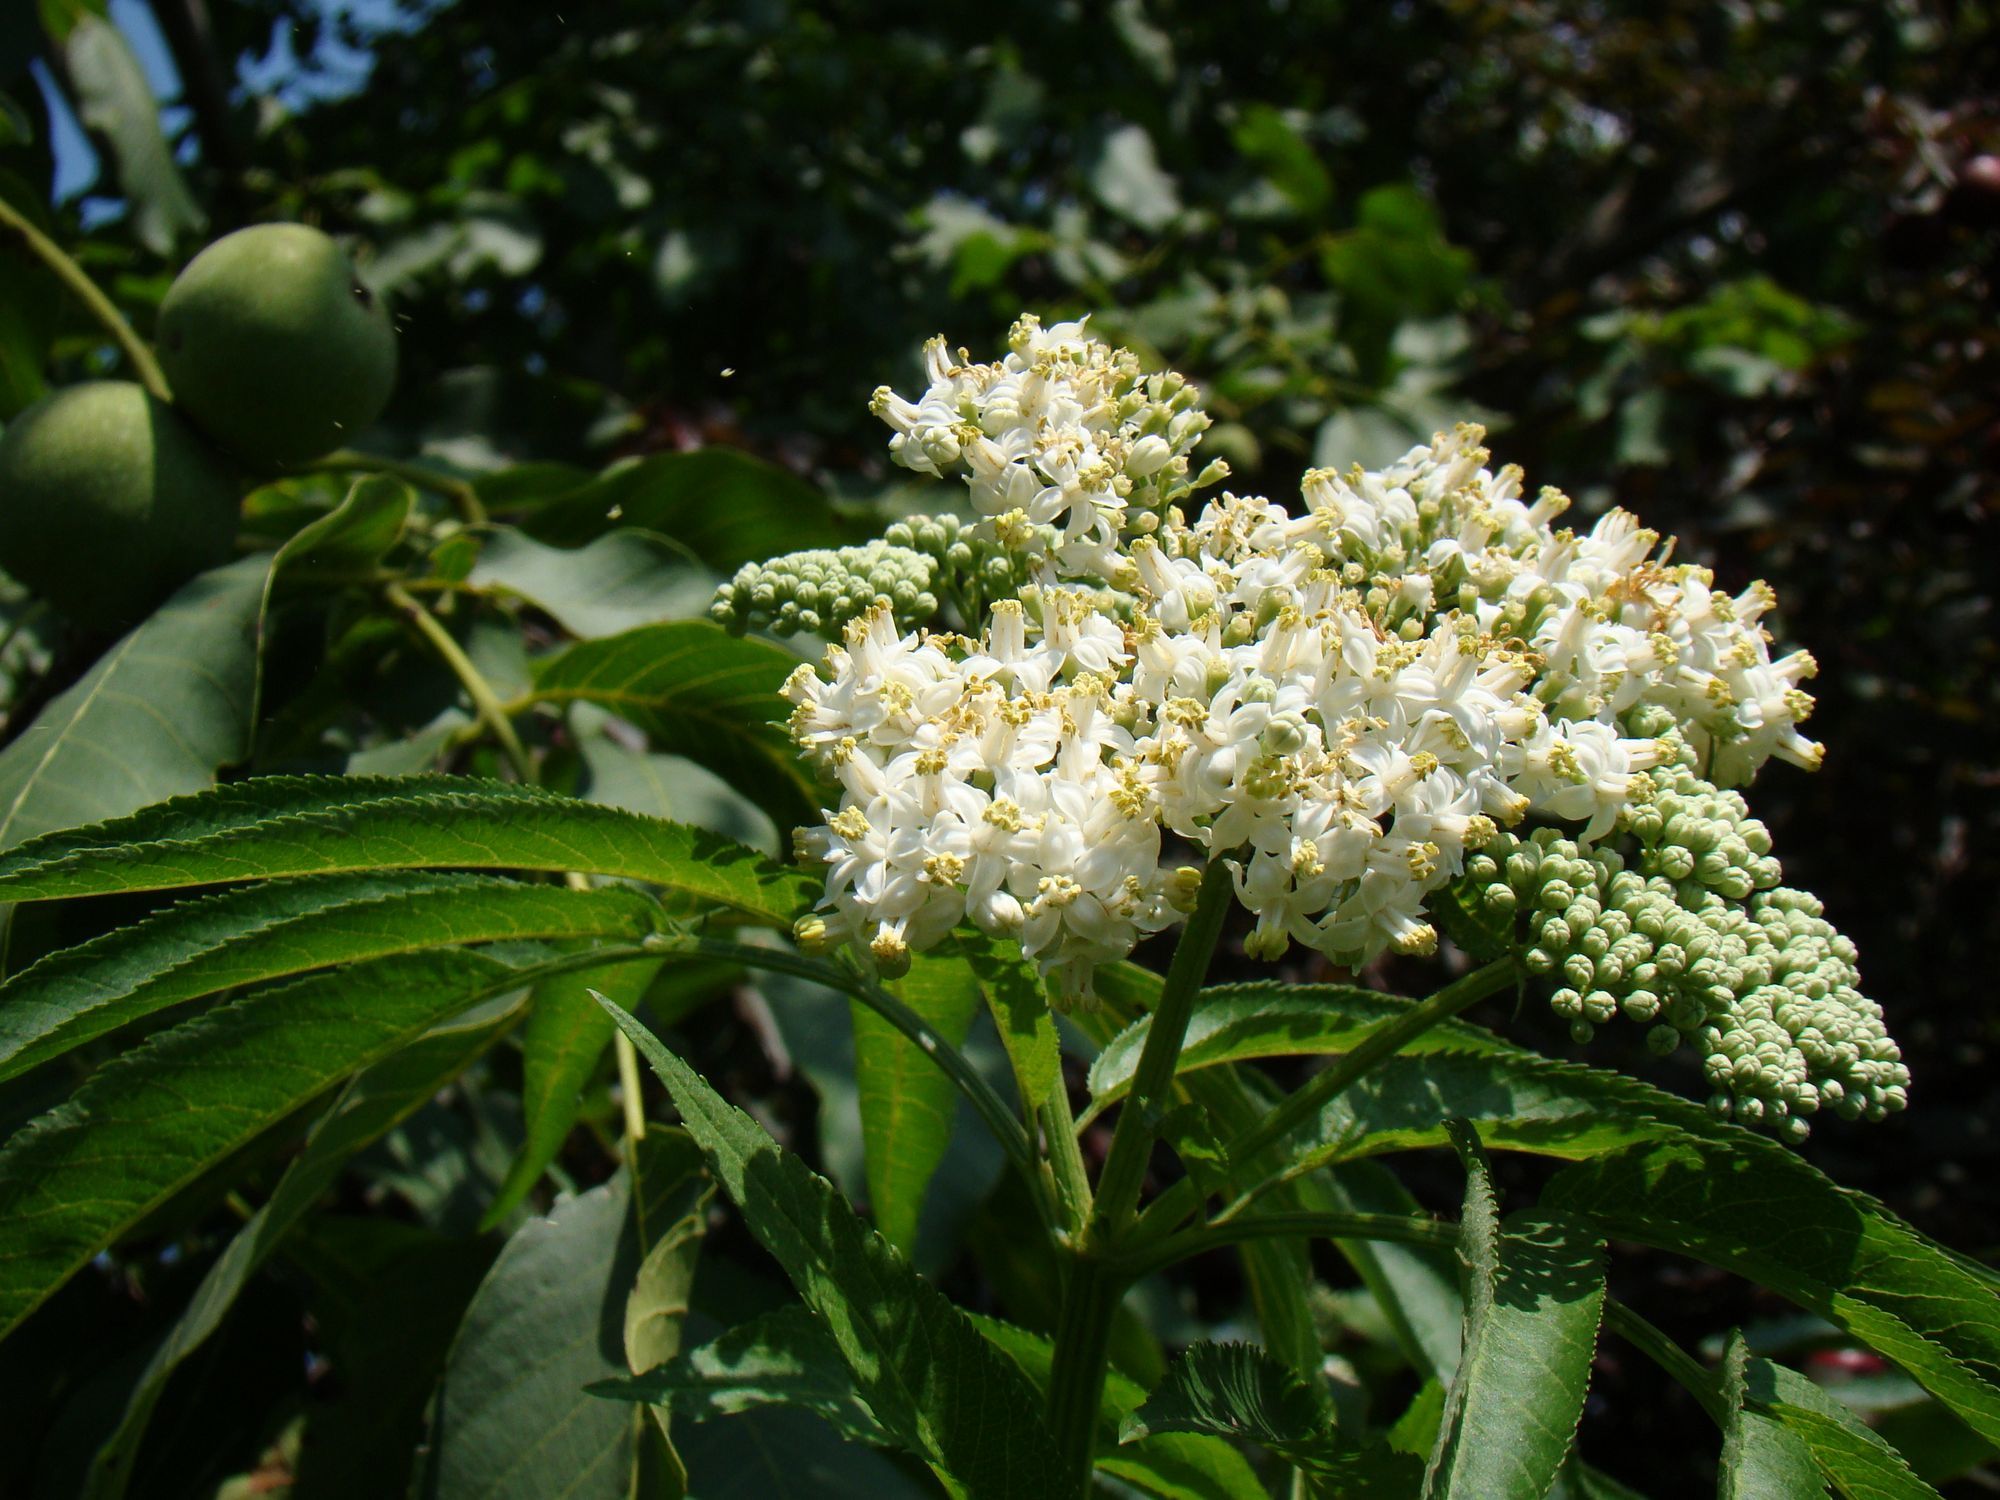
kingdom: Plantae
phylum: Tracheophyta
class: Magnoliopsida
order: Dipsacales
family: Viburnaceae
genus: Sambucus
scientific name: Sambucus ebulus
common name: Dwarf elder
